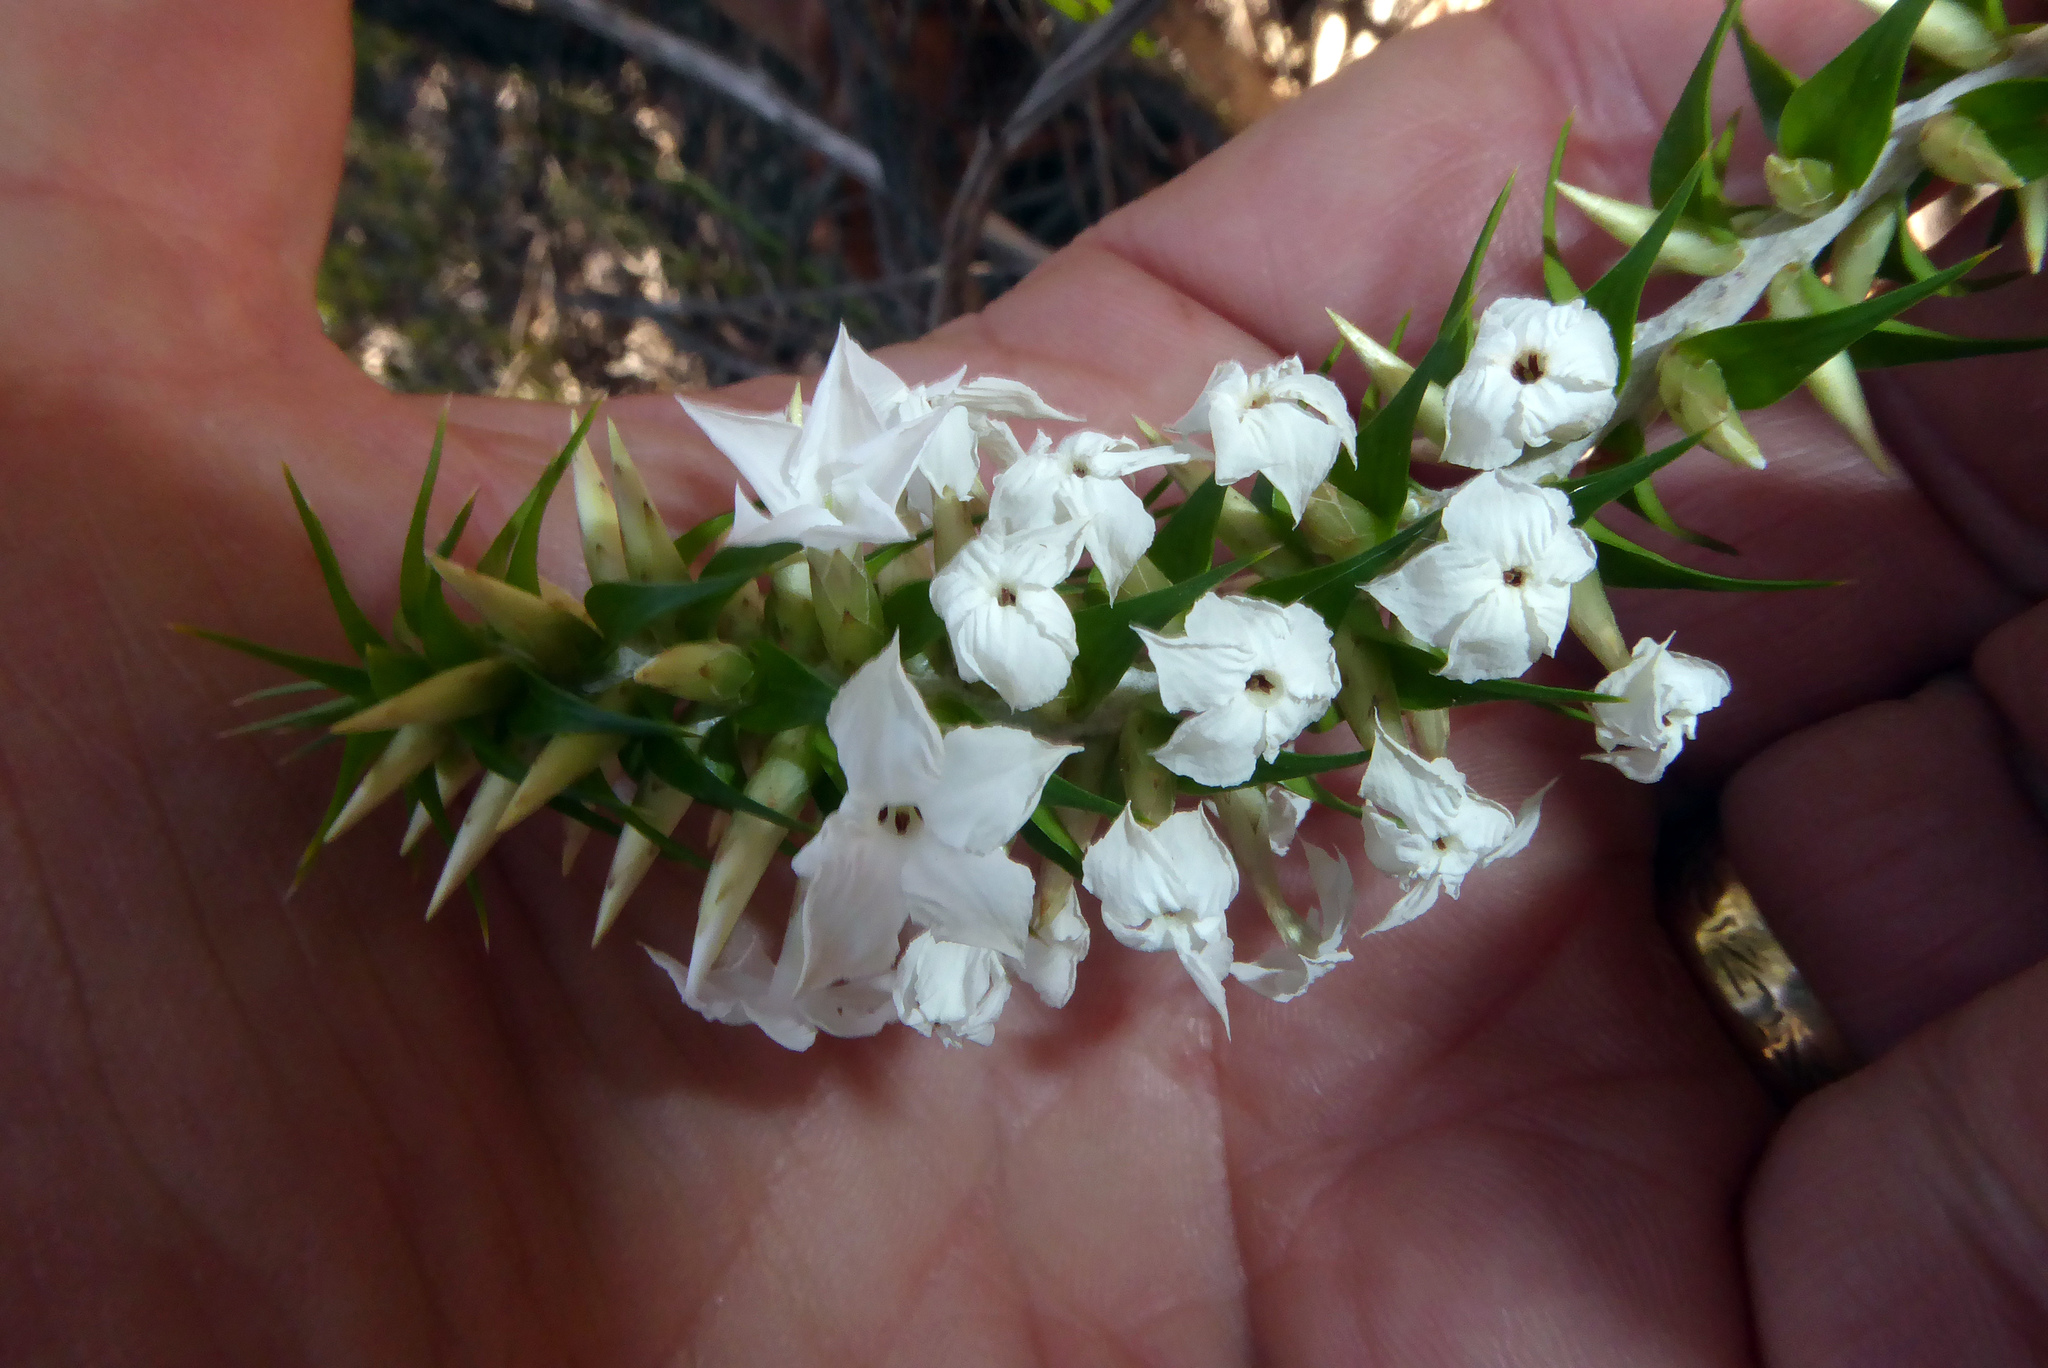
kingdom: Plantae
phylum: Tracheophyta
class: Magnoliopsida
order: Ericales
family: Ericaceae
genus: Woollsia
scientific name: Woollsia pungens
